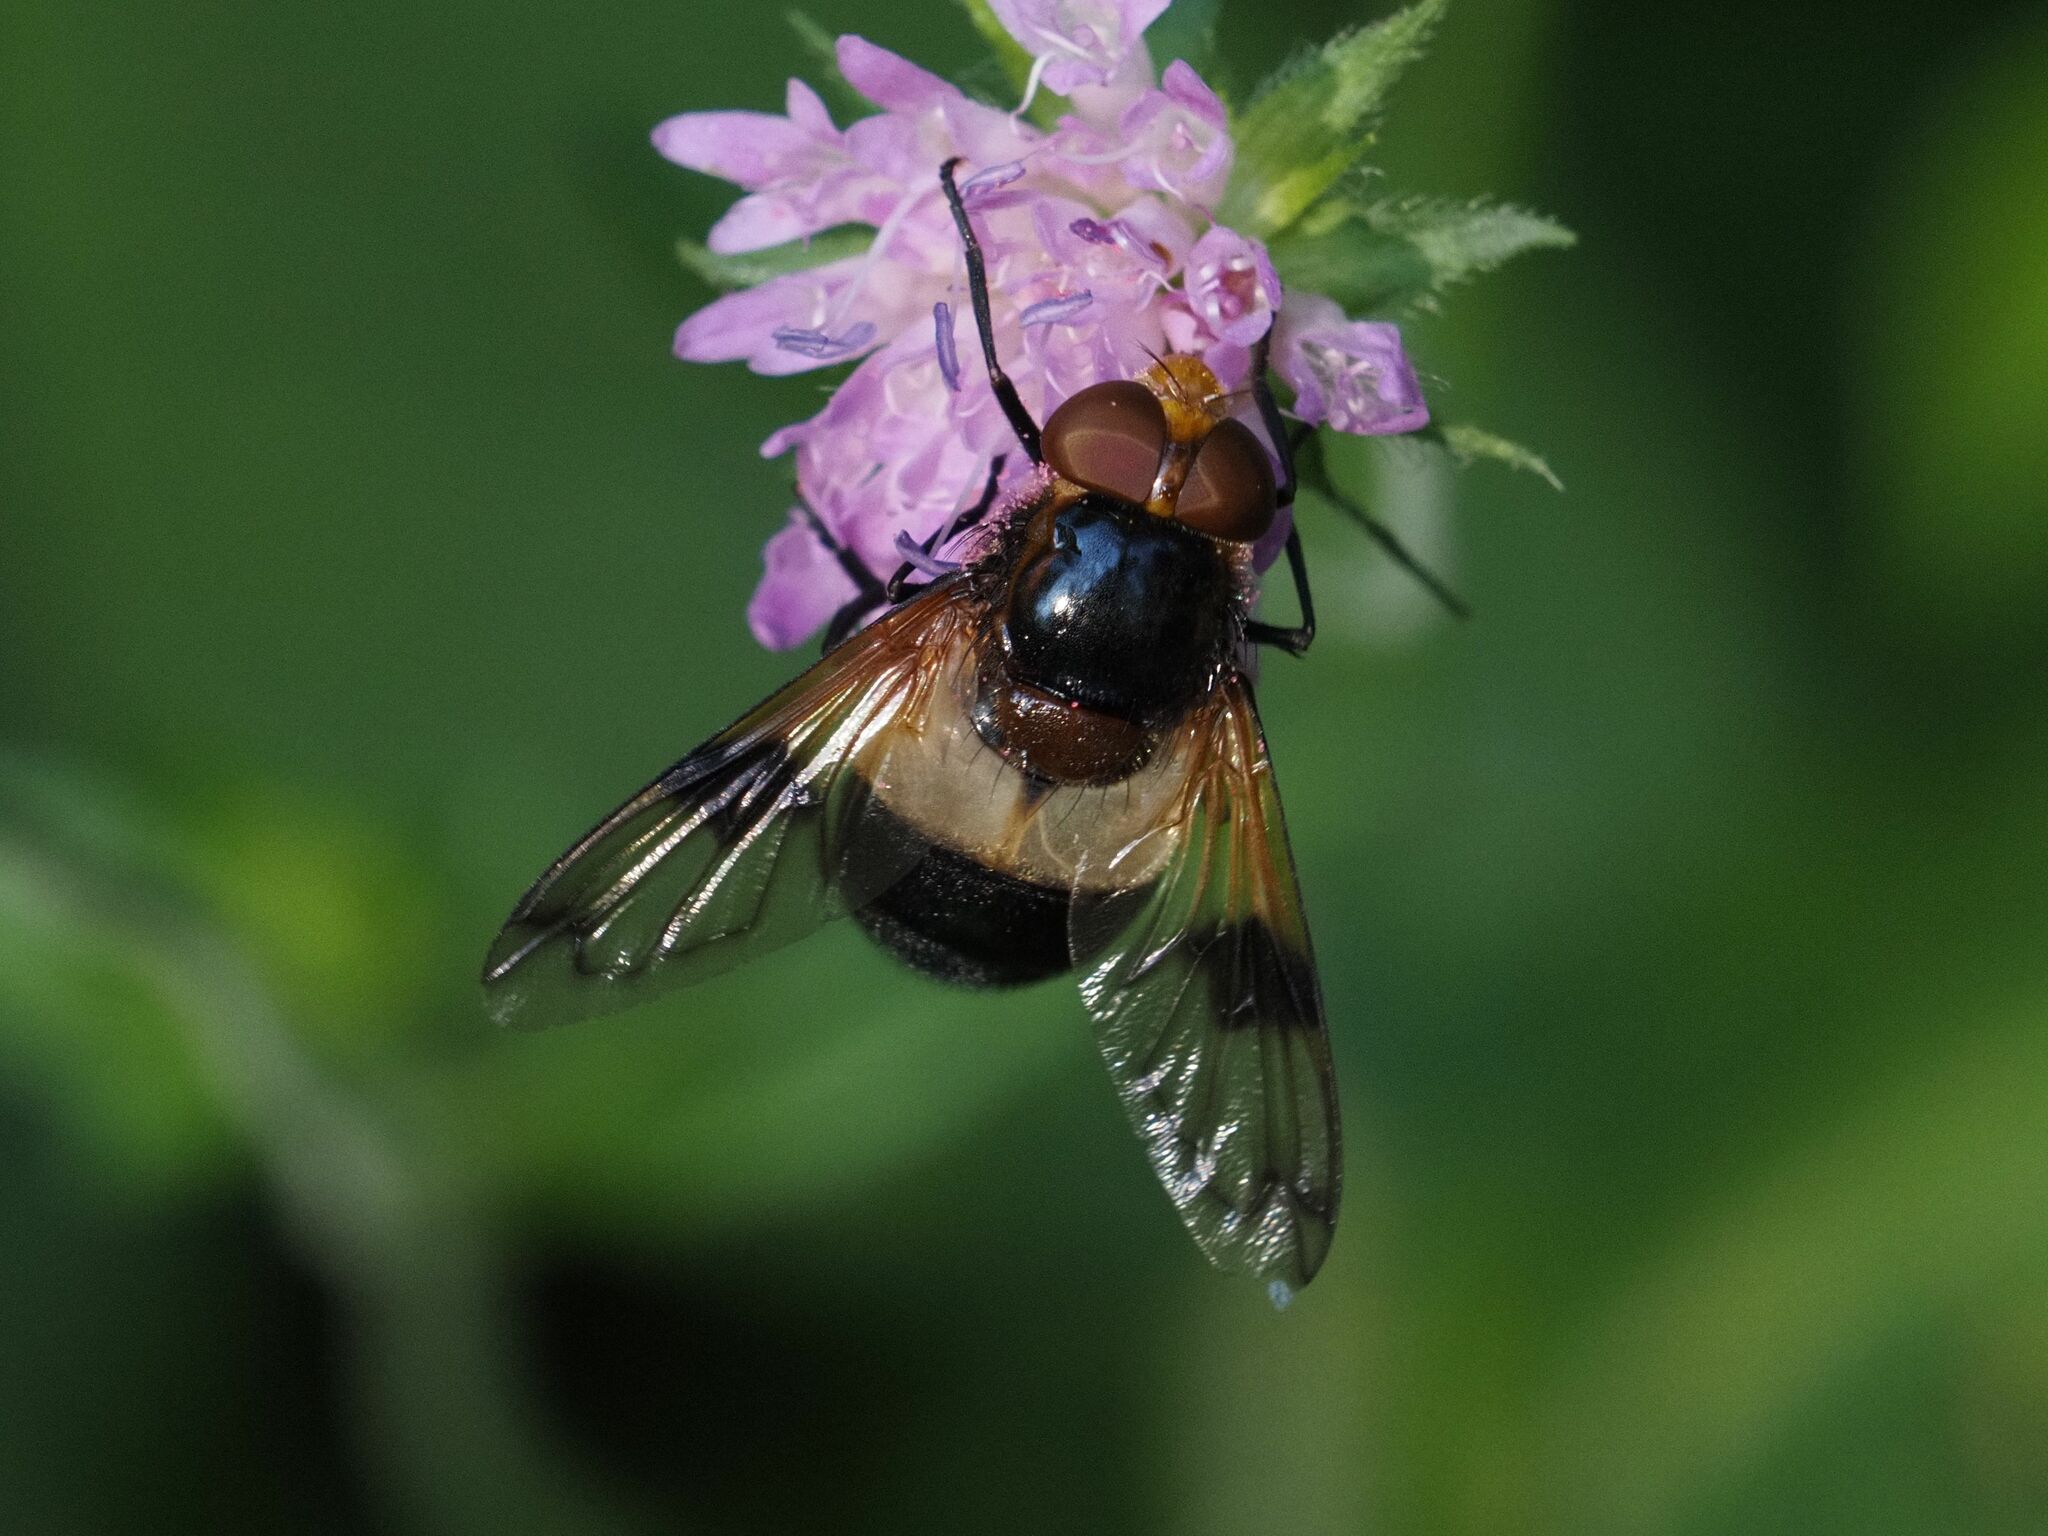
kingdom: Animalia
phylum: Arthropoda
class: Insecta
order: Diptera
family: Syrphidae
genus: Volucella
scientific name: Volucella pellucens
